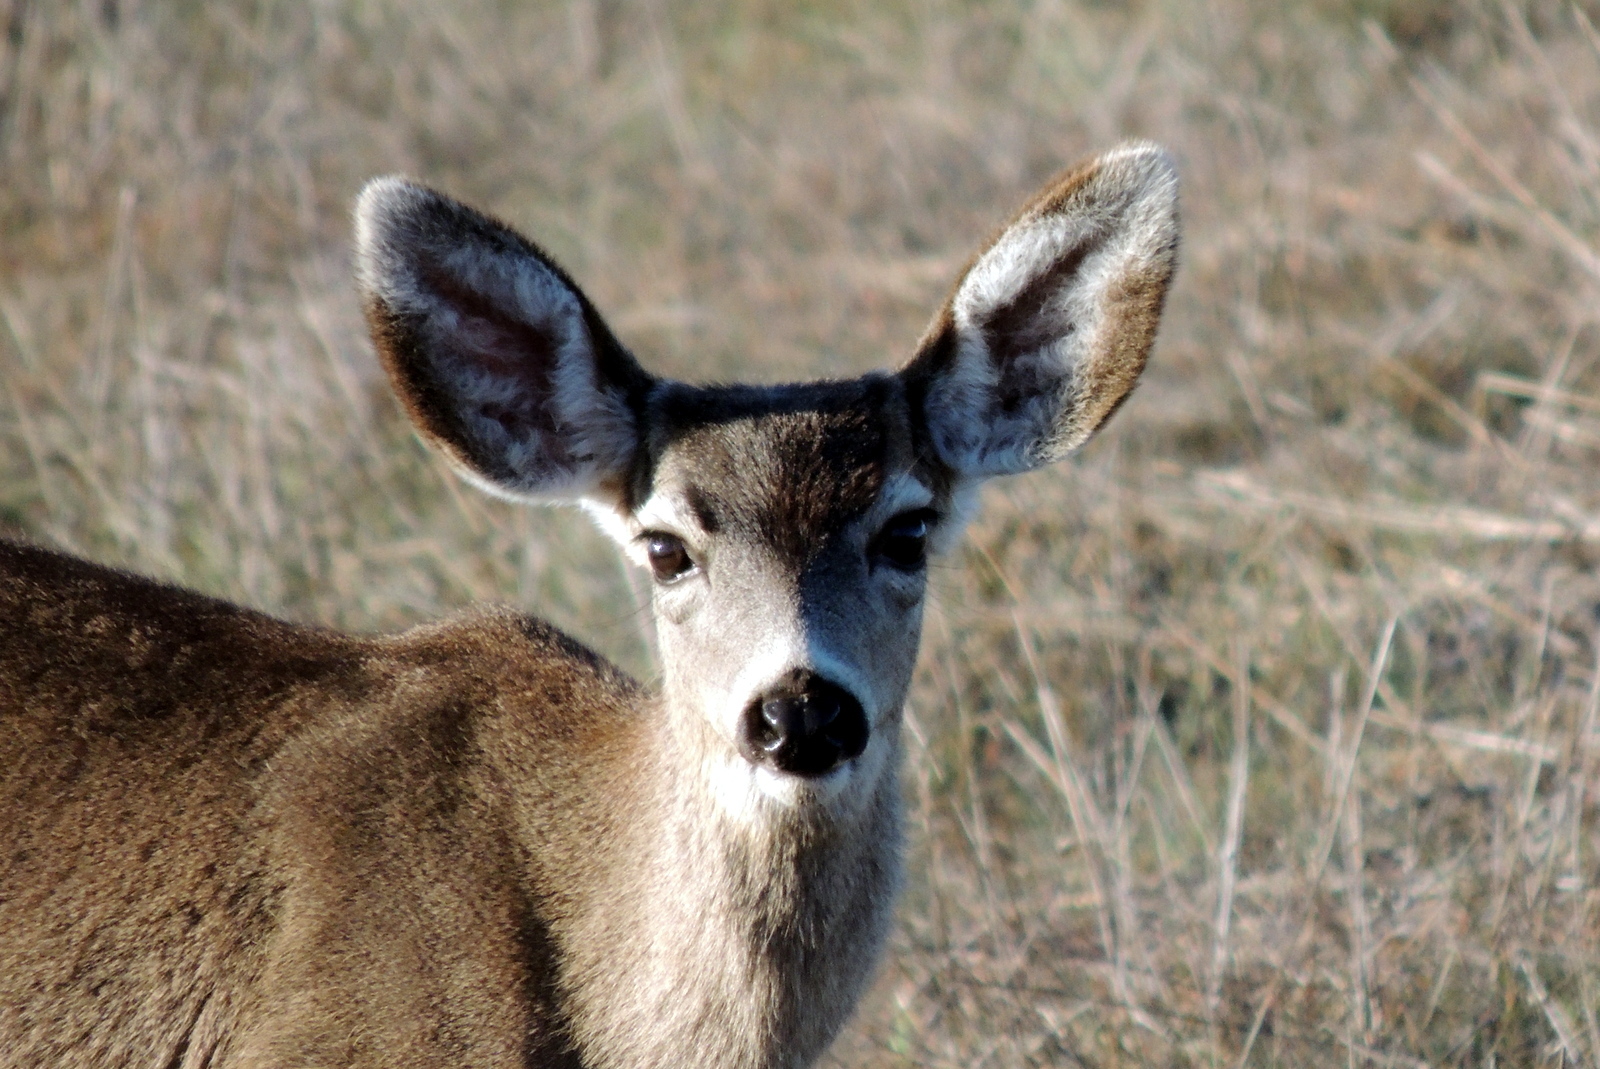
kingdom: Animalia
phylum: Chordata
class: Mammalia
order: Artiodactyla
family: Cervidae
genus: Odocoileus
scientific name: Odocoileus hemionus
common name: Mule deer
